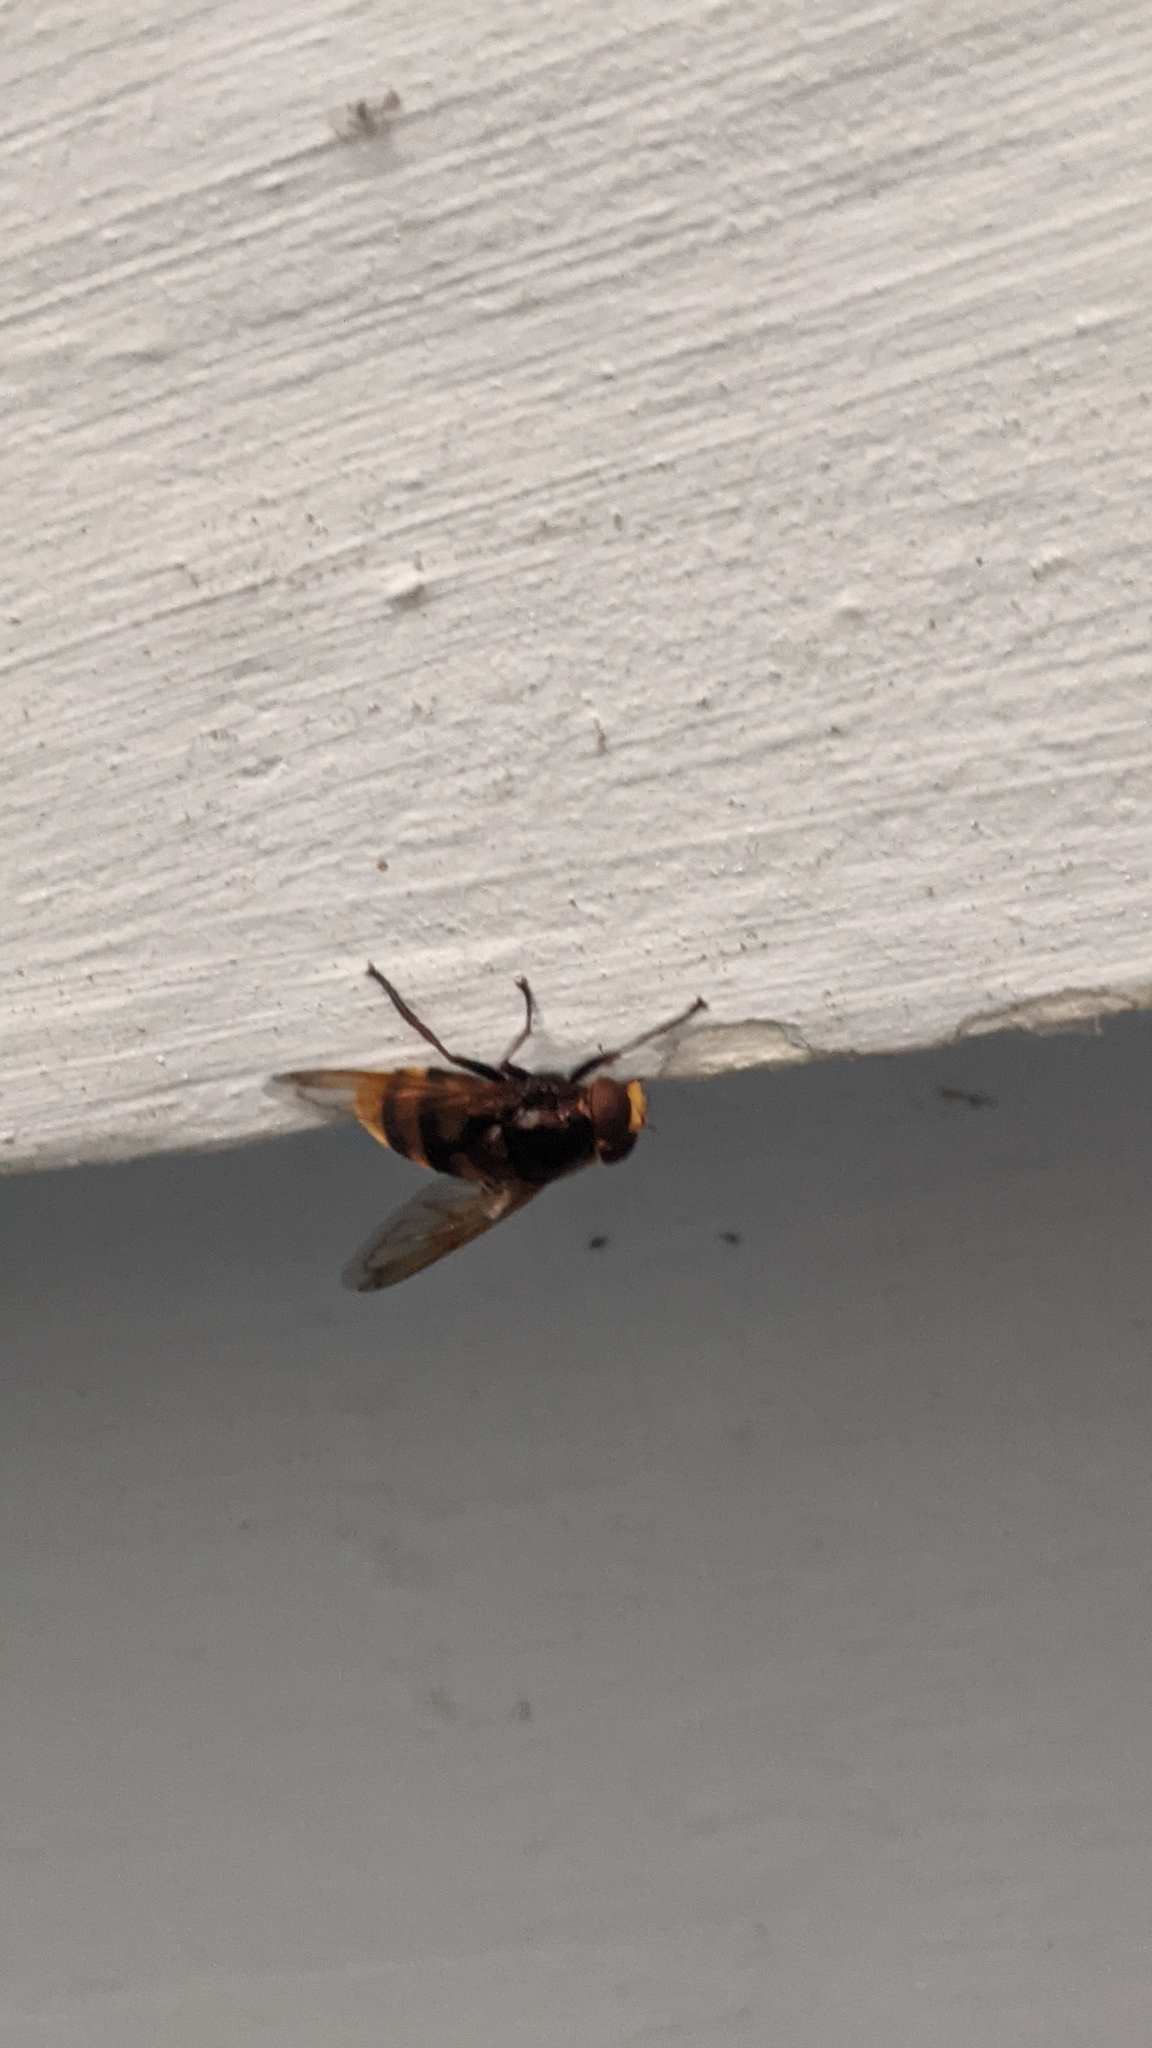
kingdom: Animalia
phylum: Arthropoda
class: Insecta
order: Diptera
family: Syrphidae
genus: Volucella
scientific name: Volucella zonaria
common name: Hornet hoverfly
